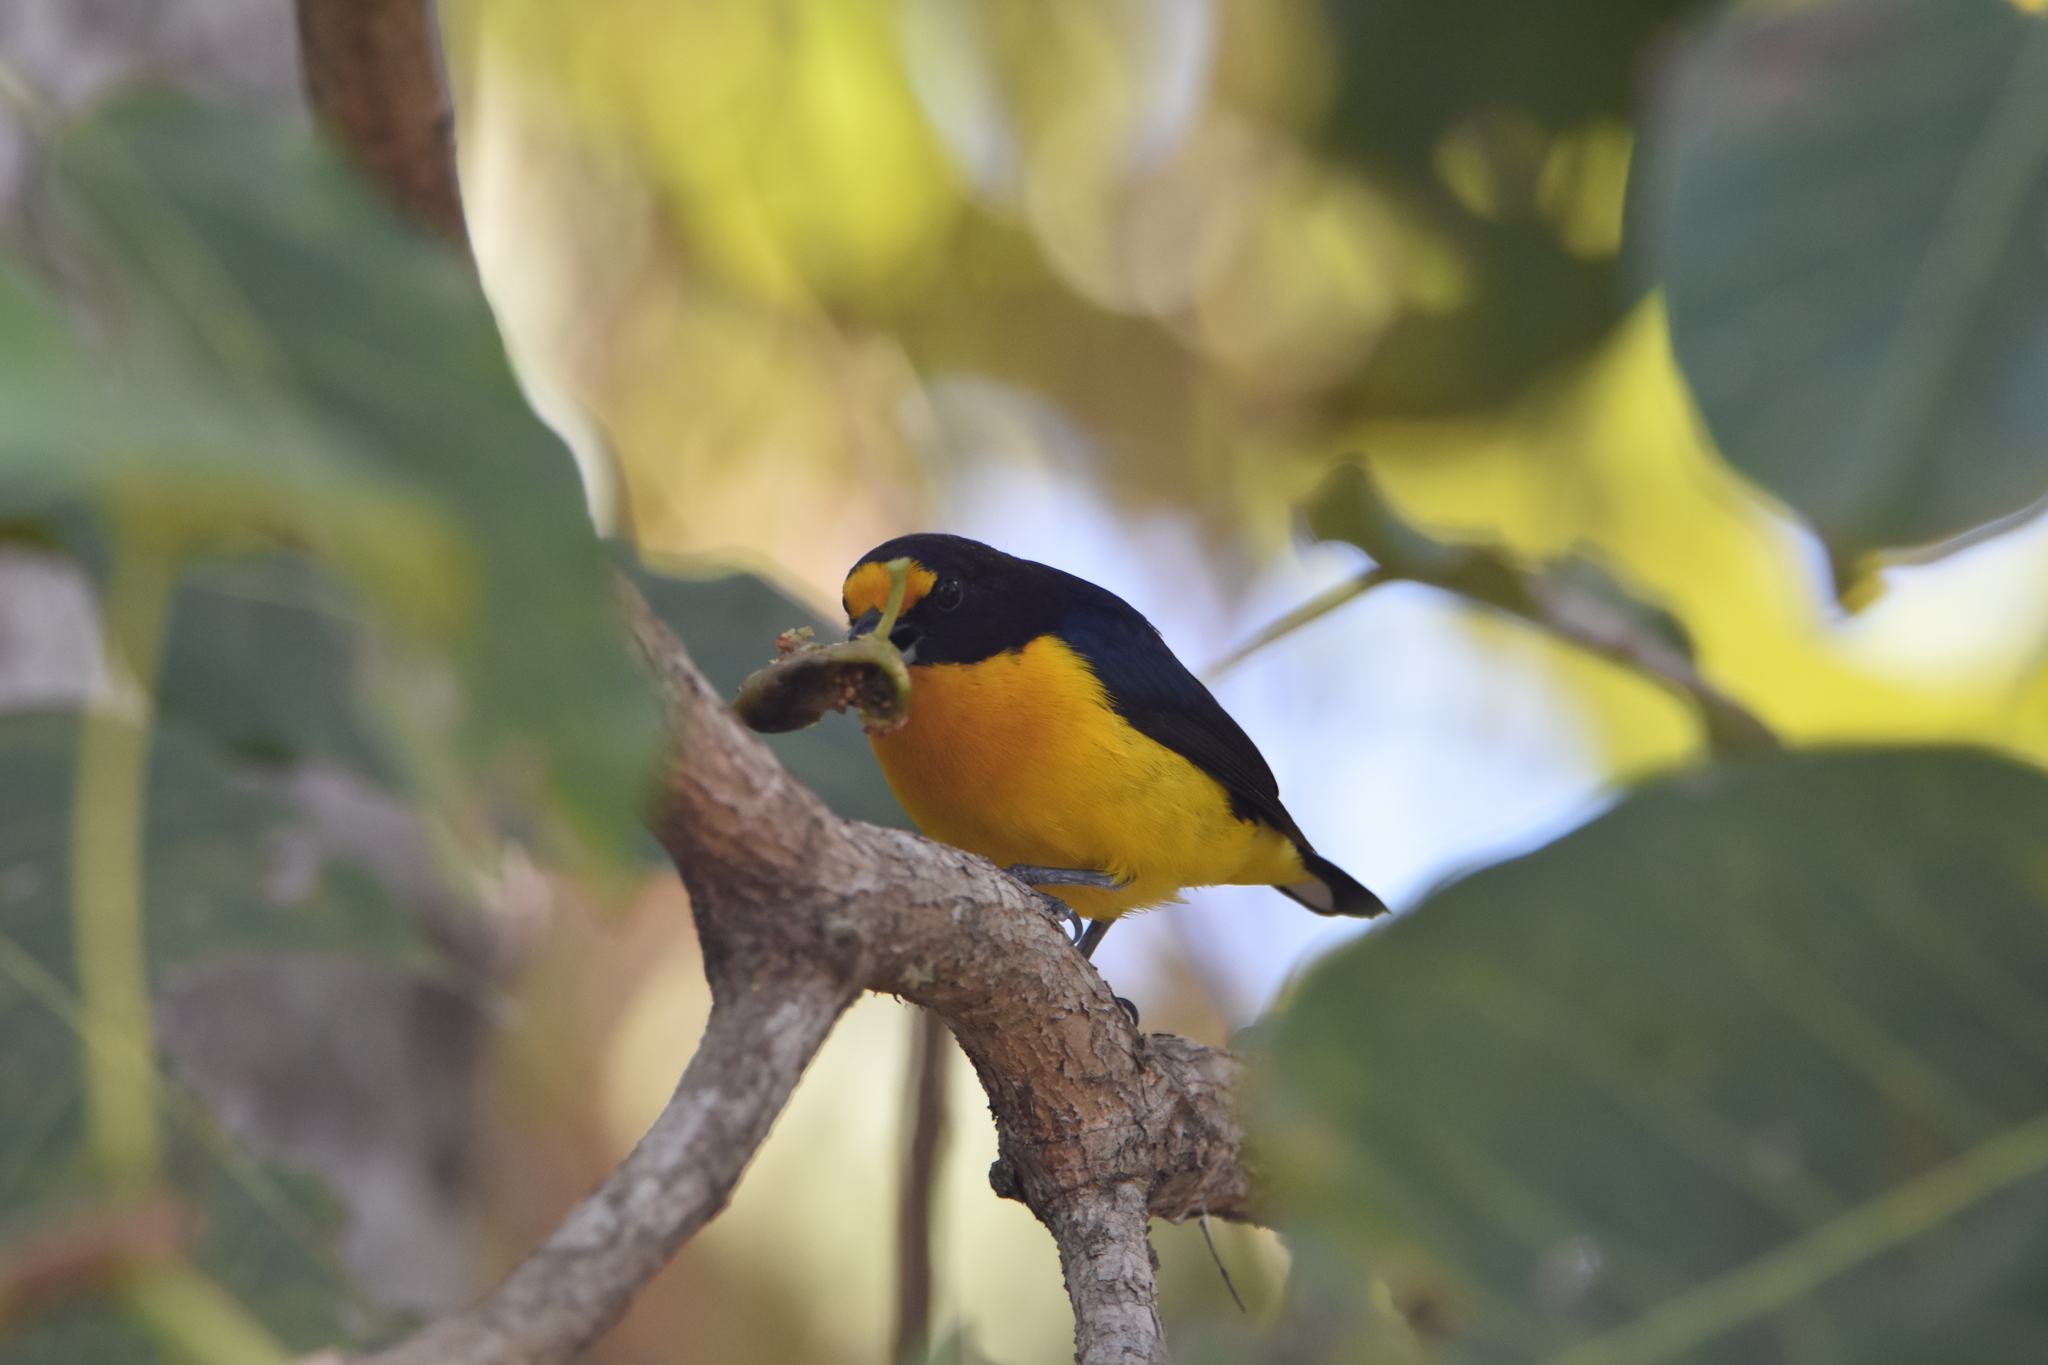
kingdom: Animalia
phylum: Chordata
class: Aves
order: Passeriformes
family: Fringillidae
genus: Euphonia
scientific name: Euphonia violacea
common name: Violaceous euphonia
